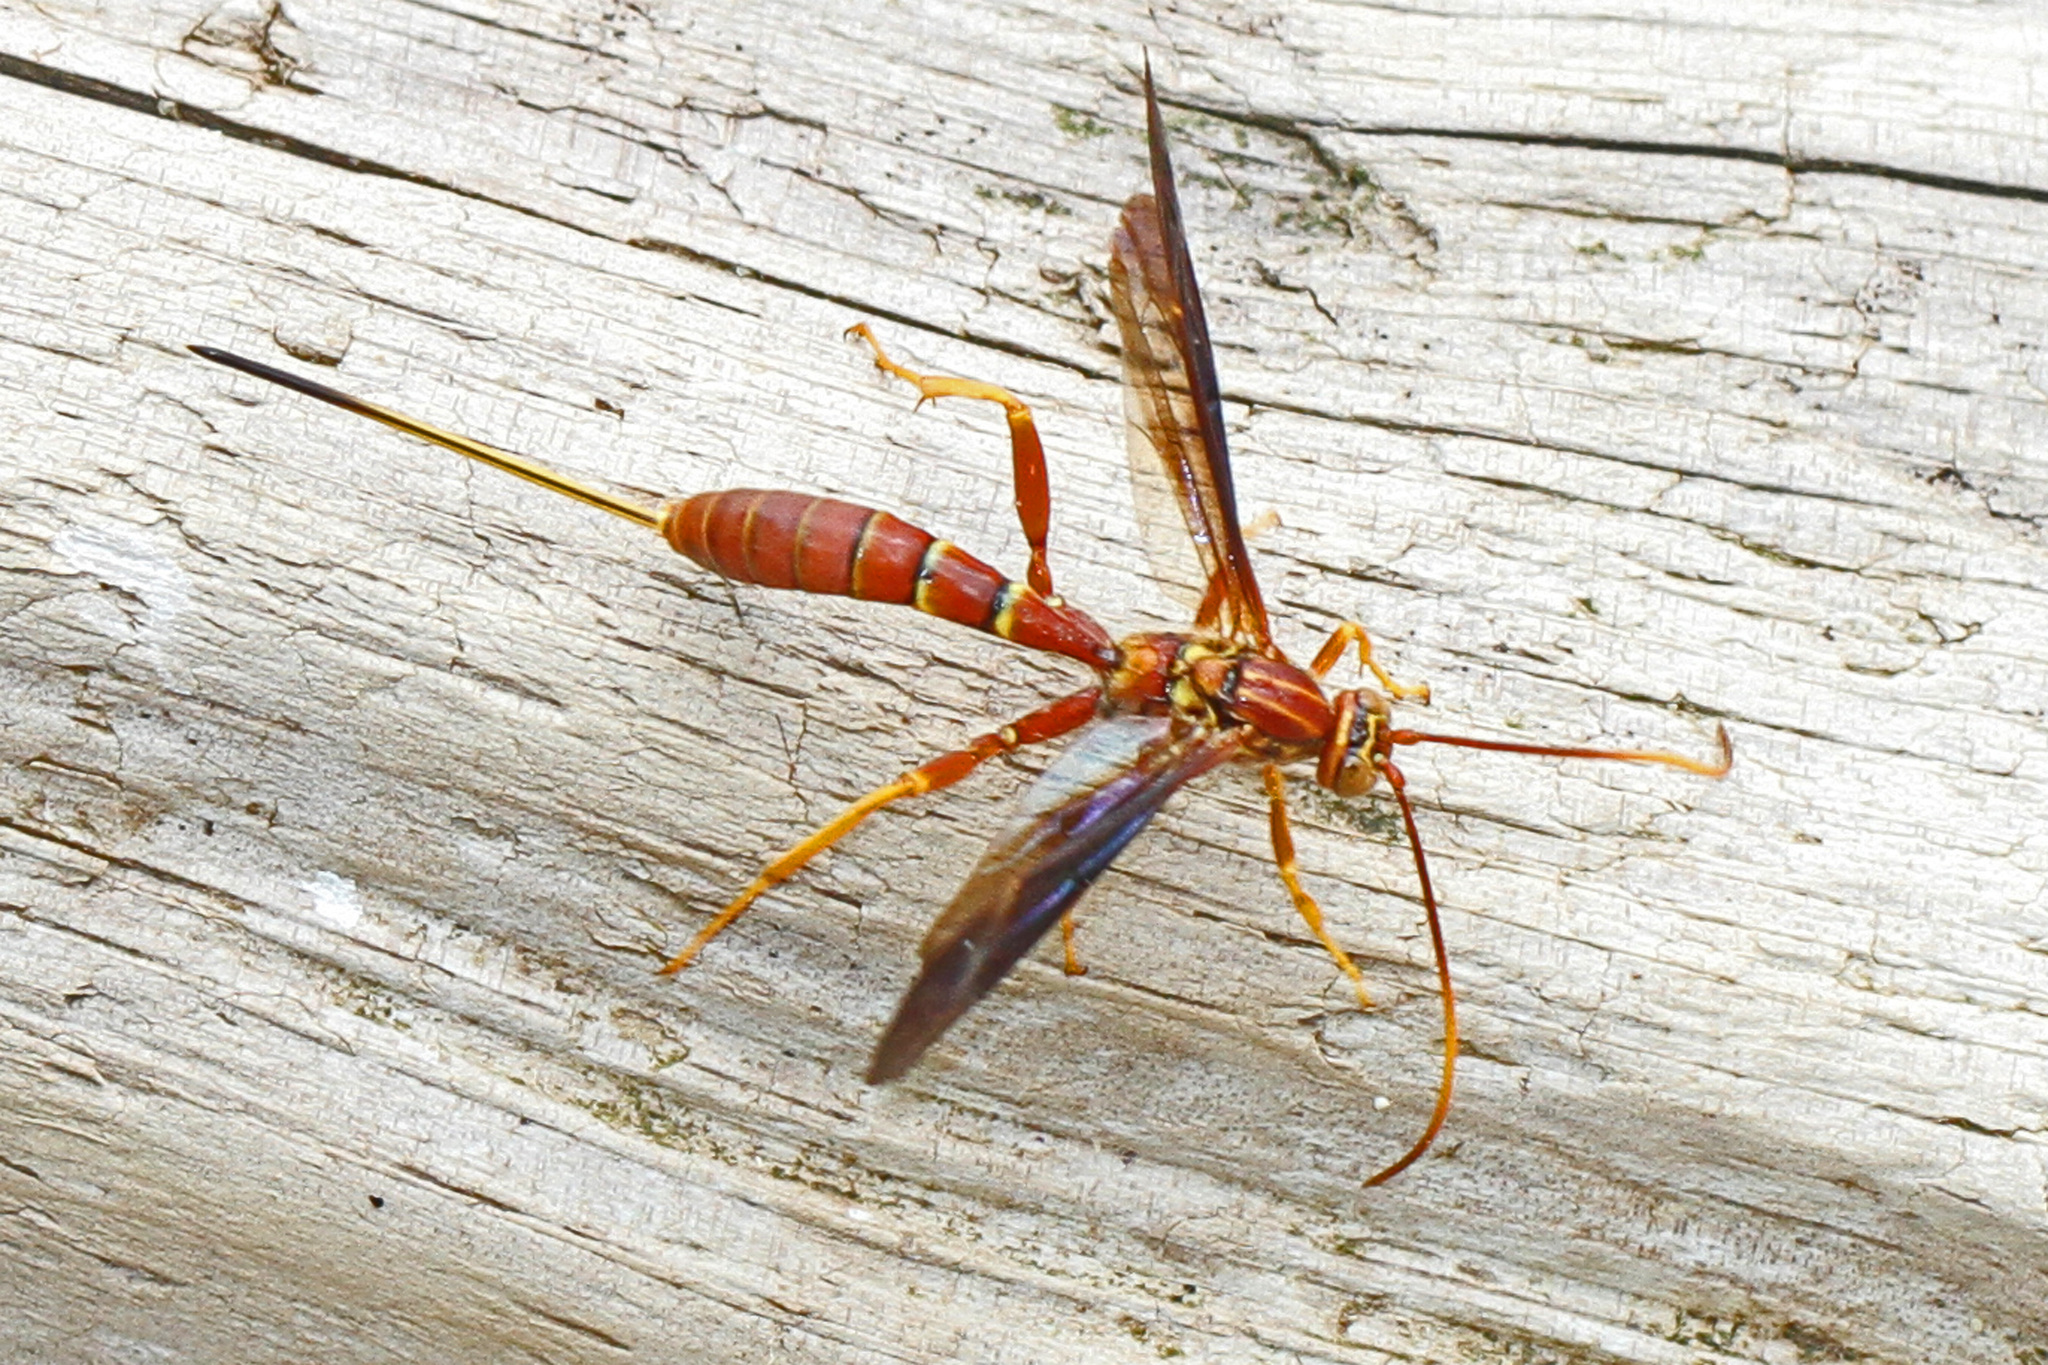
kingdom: Animalia
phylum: Arthropoda
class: Insecta
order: Hymenoptera
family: Ichneumonidae
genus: Labena
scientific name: Labena grallator
